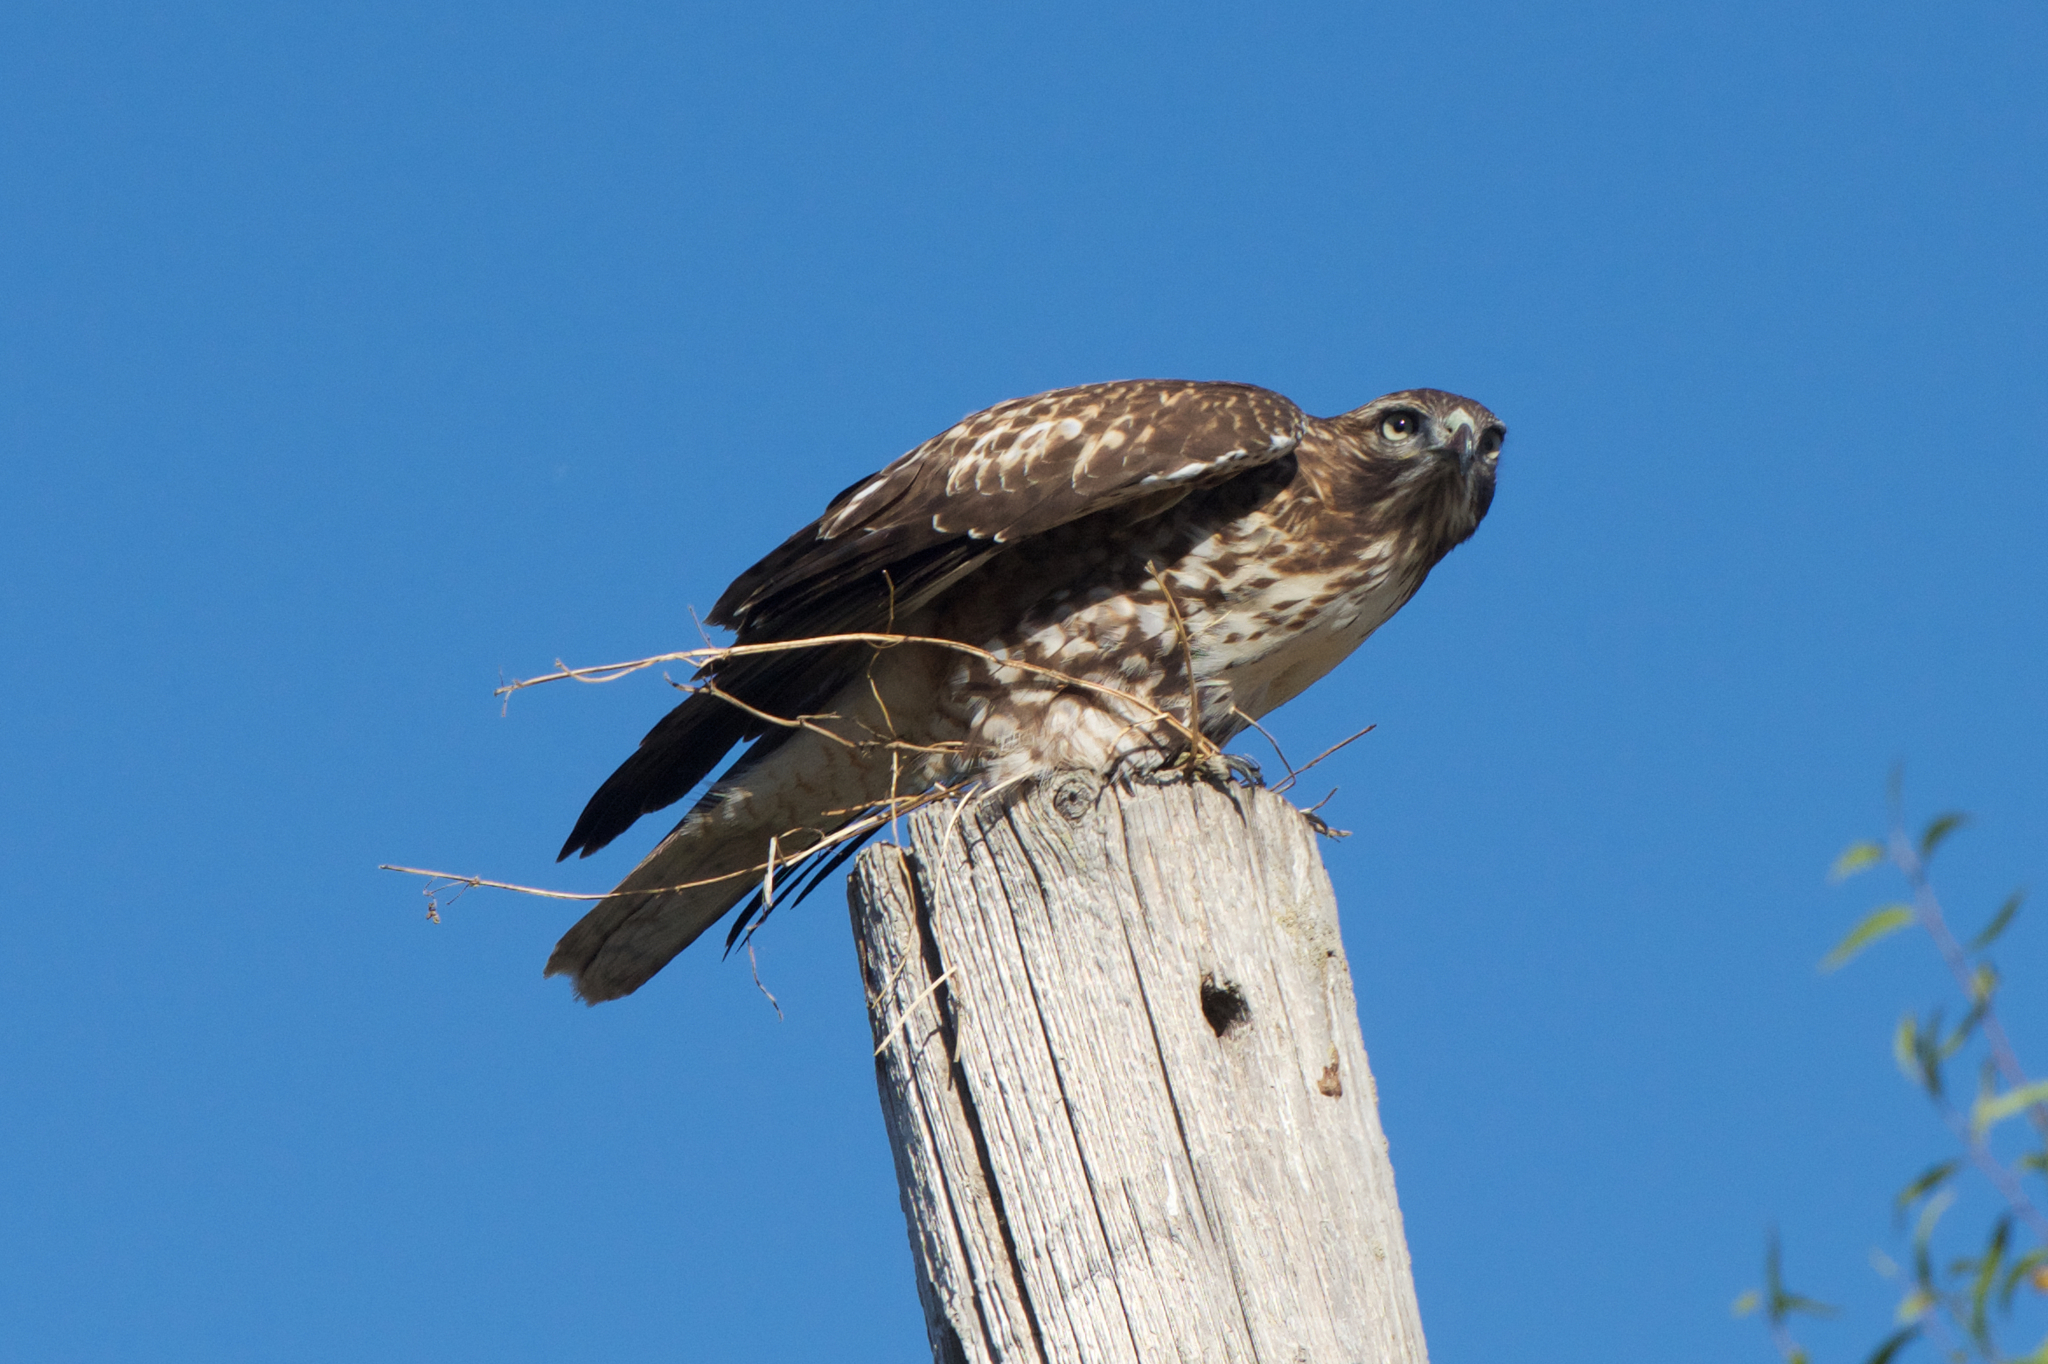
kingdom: Animalia
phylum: Chordata
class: Aves
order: Accipitriformes
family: Accipitridae
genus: Buteo
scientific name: Buteo jamaicensis
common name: Red-tailed hawk
